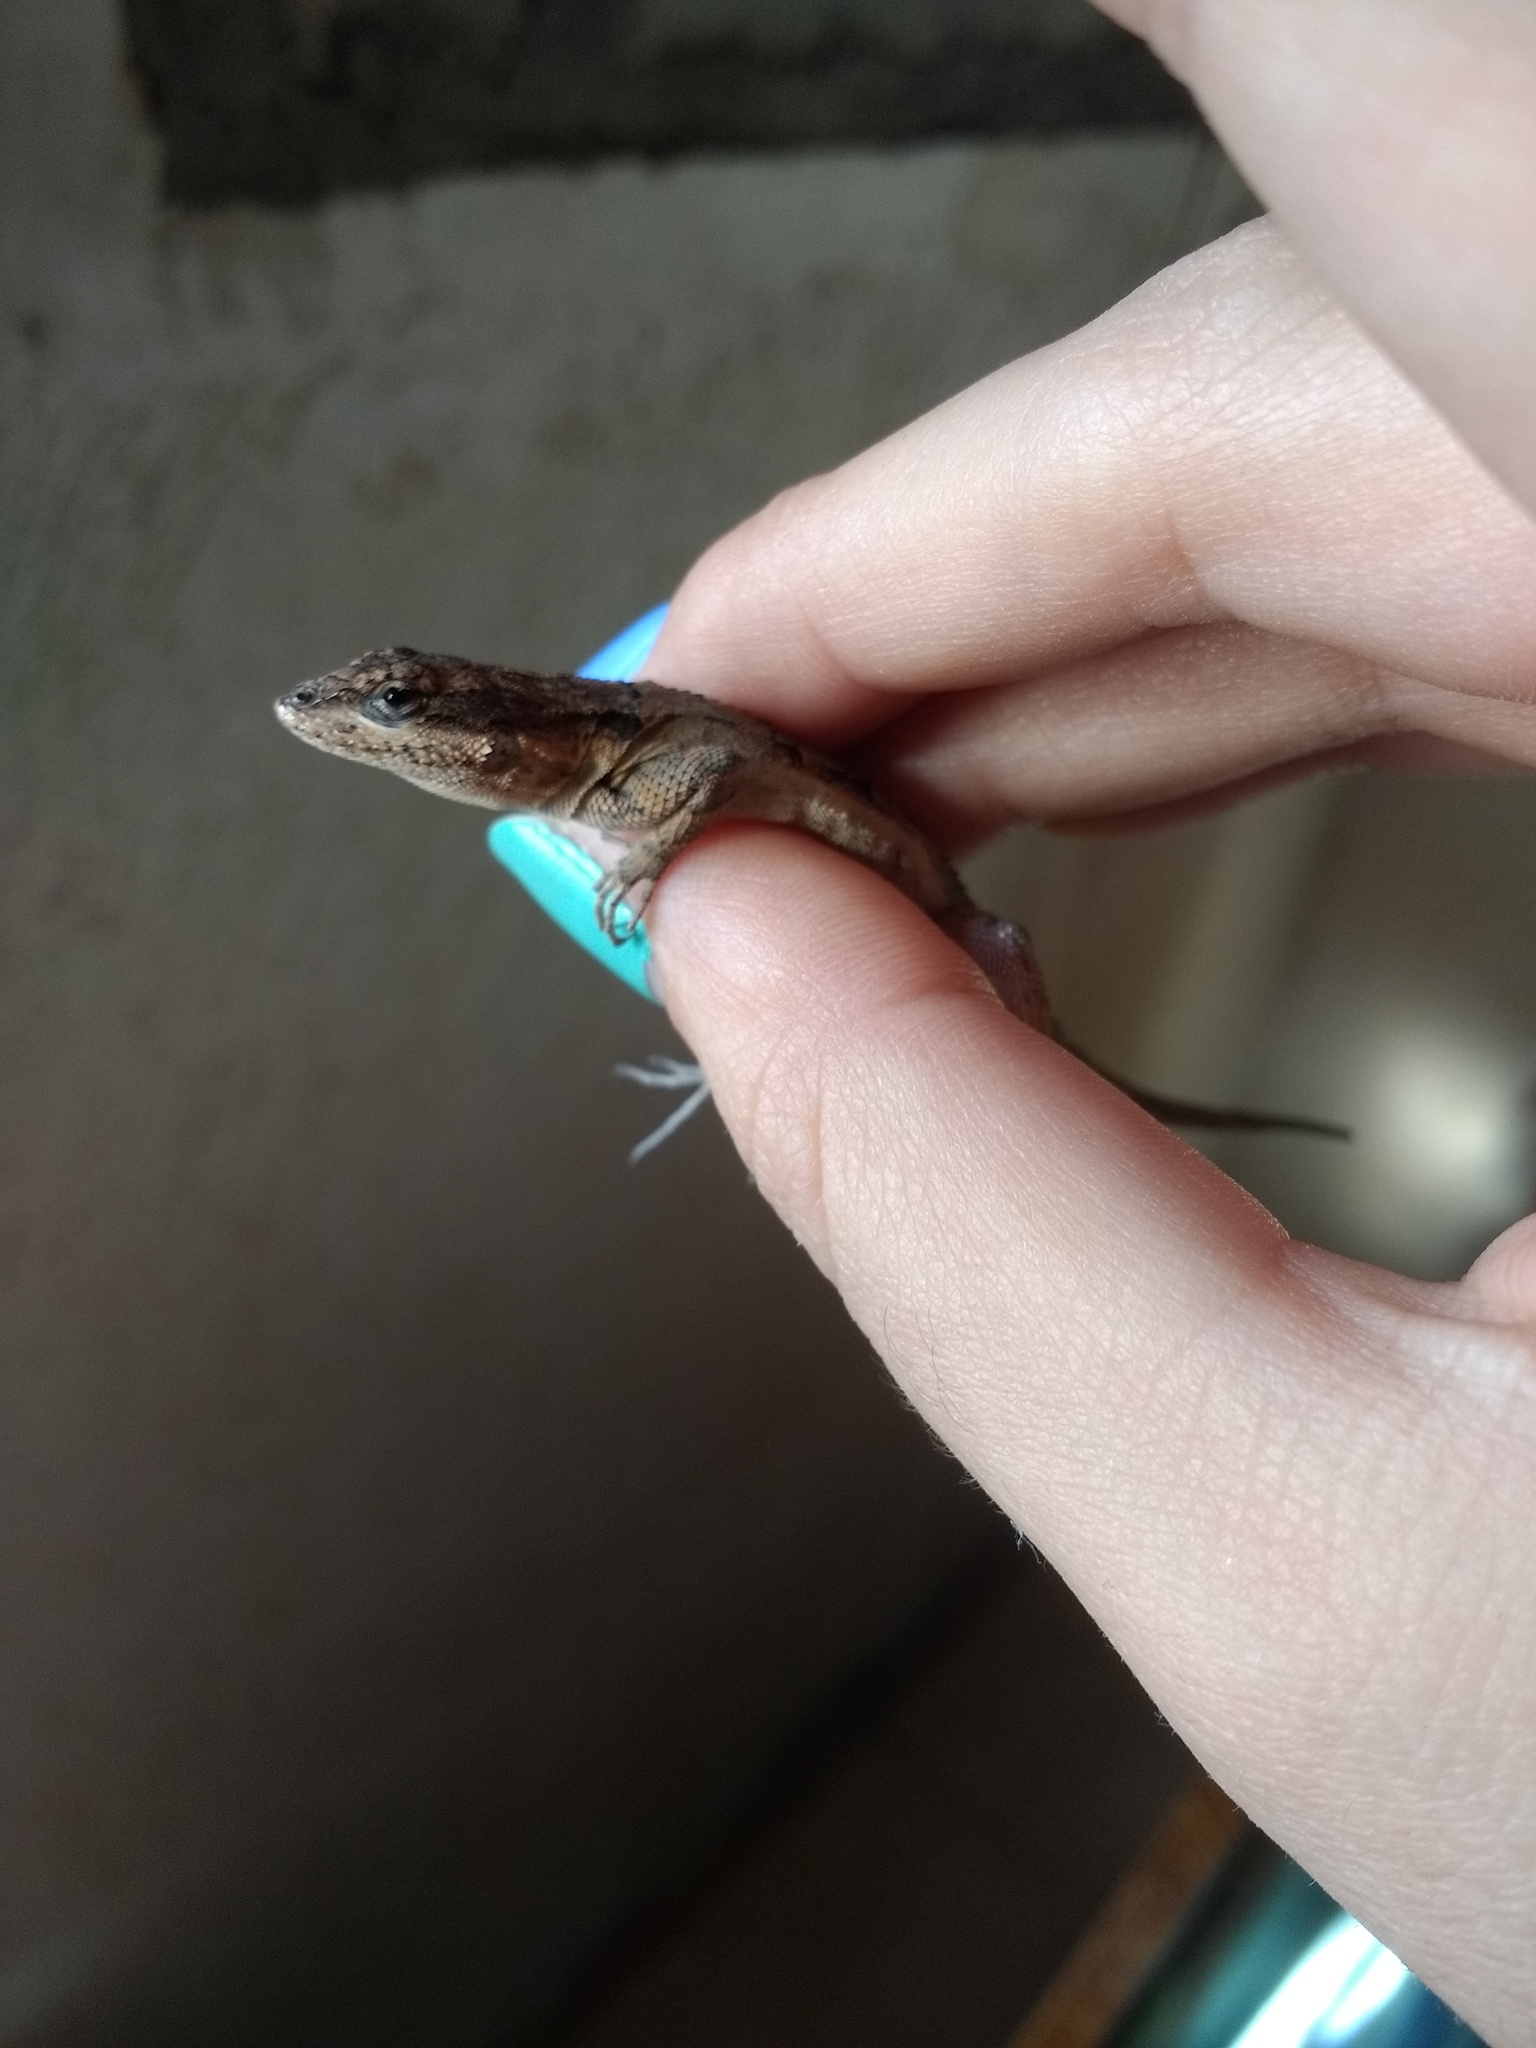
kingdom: Animalia
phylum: Chordata
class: Squamata
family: Phrynosomatidae
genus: Urosaurus
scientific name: Urosaurus ornatus
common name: Ornate tree lizard
